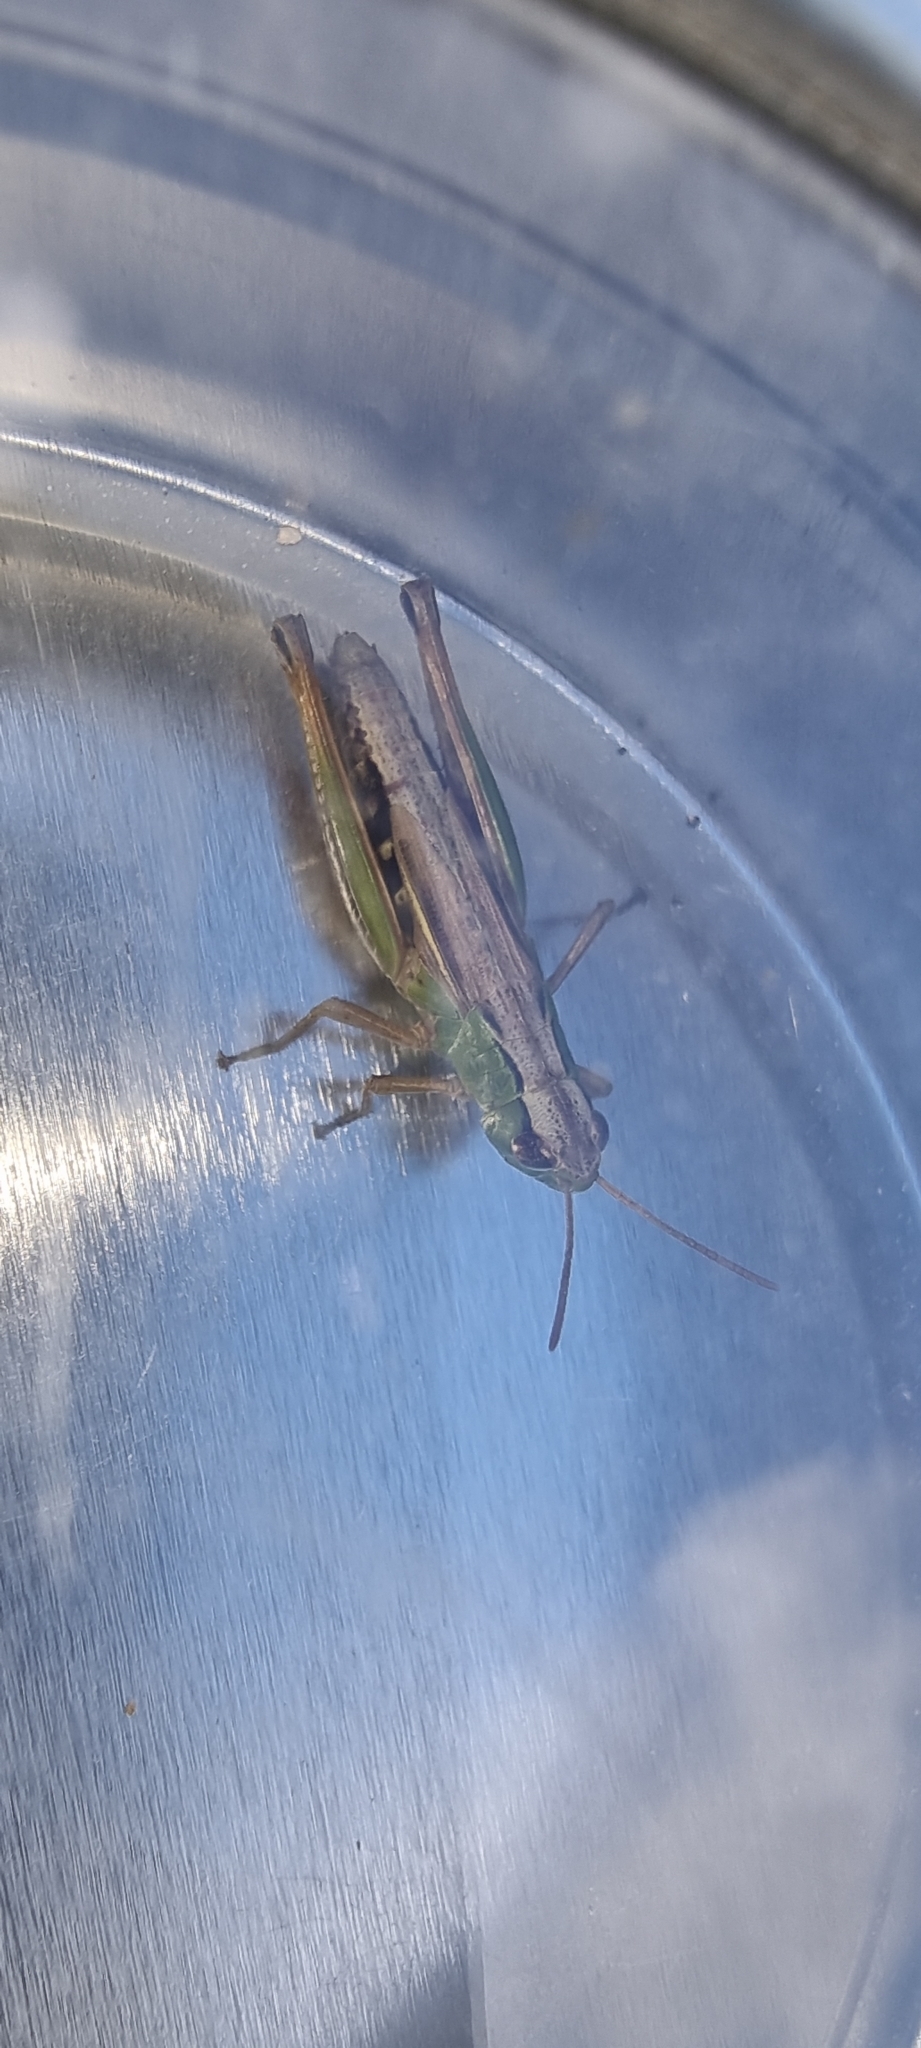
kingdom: Animalia
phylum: Arthropoda
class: Insecta
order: Orthoptera
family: Acrididae
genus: Pseudochorthippus
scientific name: Pseudochorthippus parallelus
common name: Meadow grasshopper
